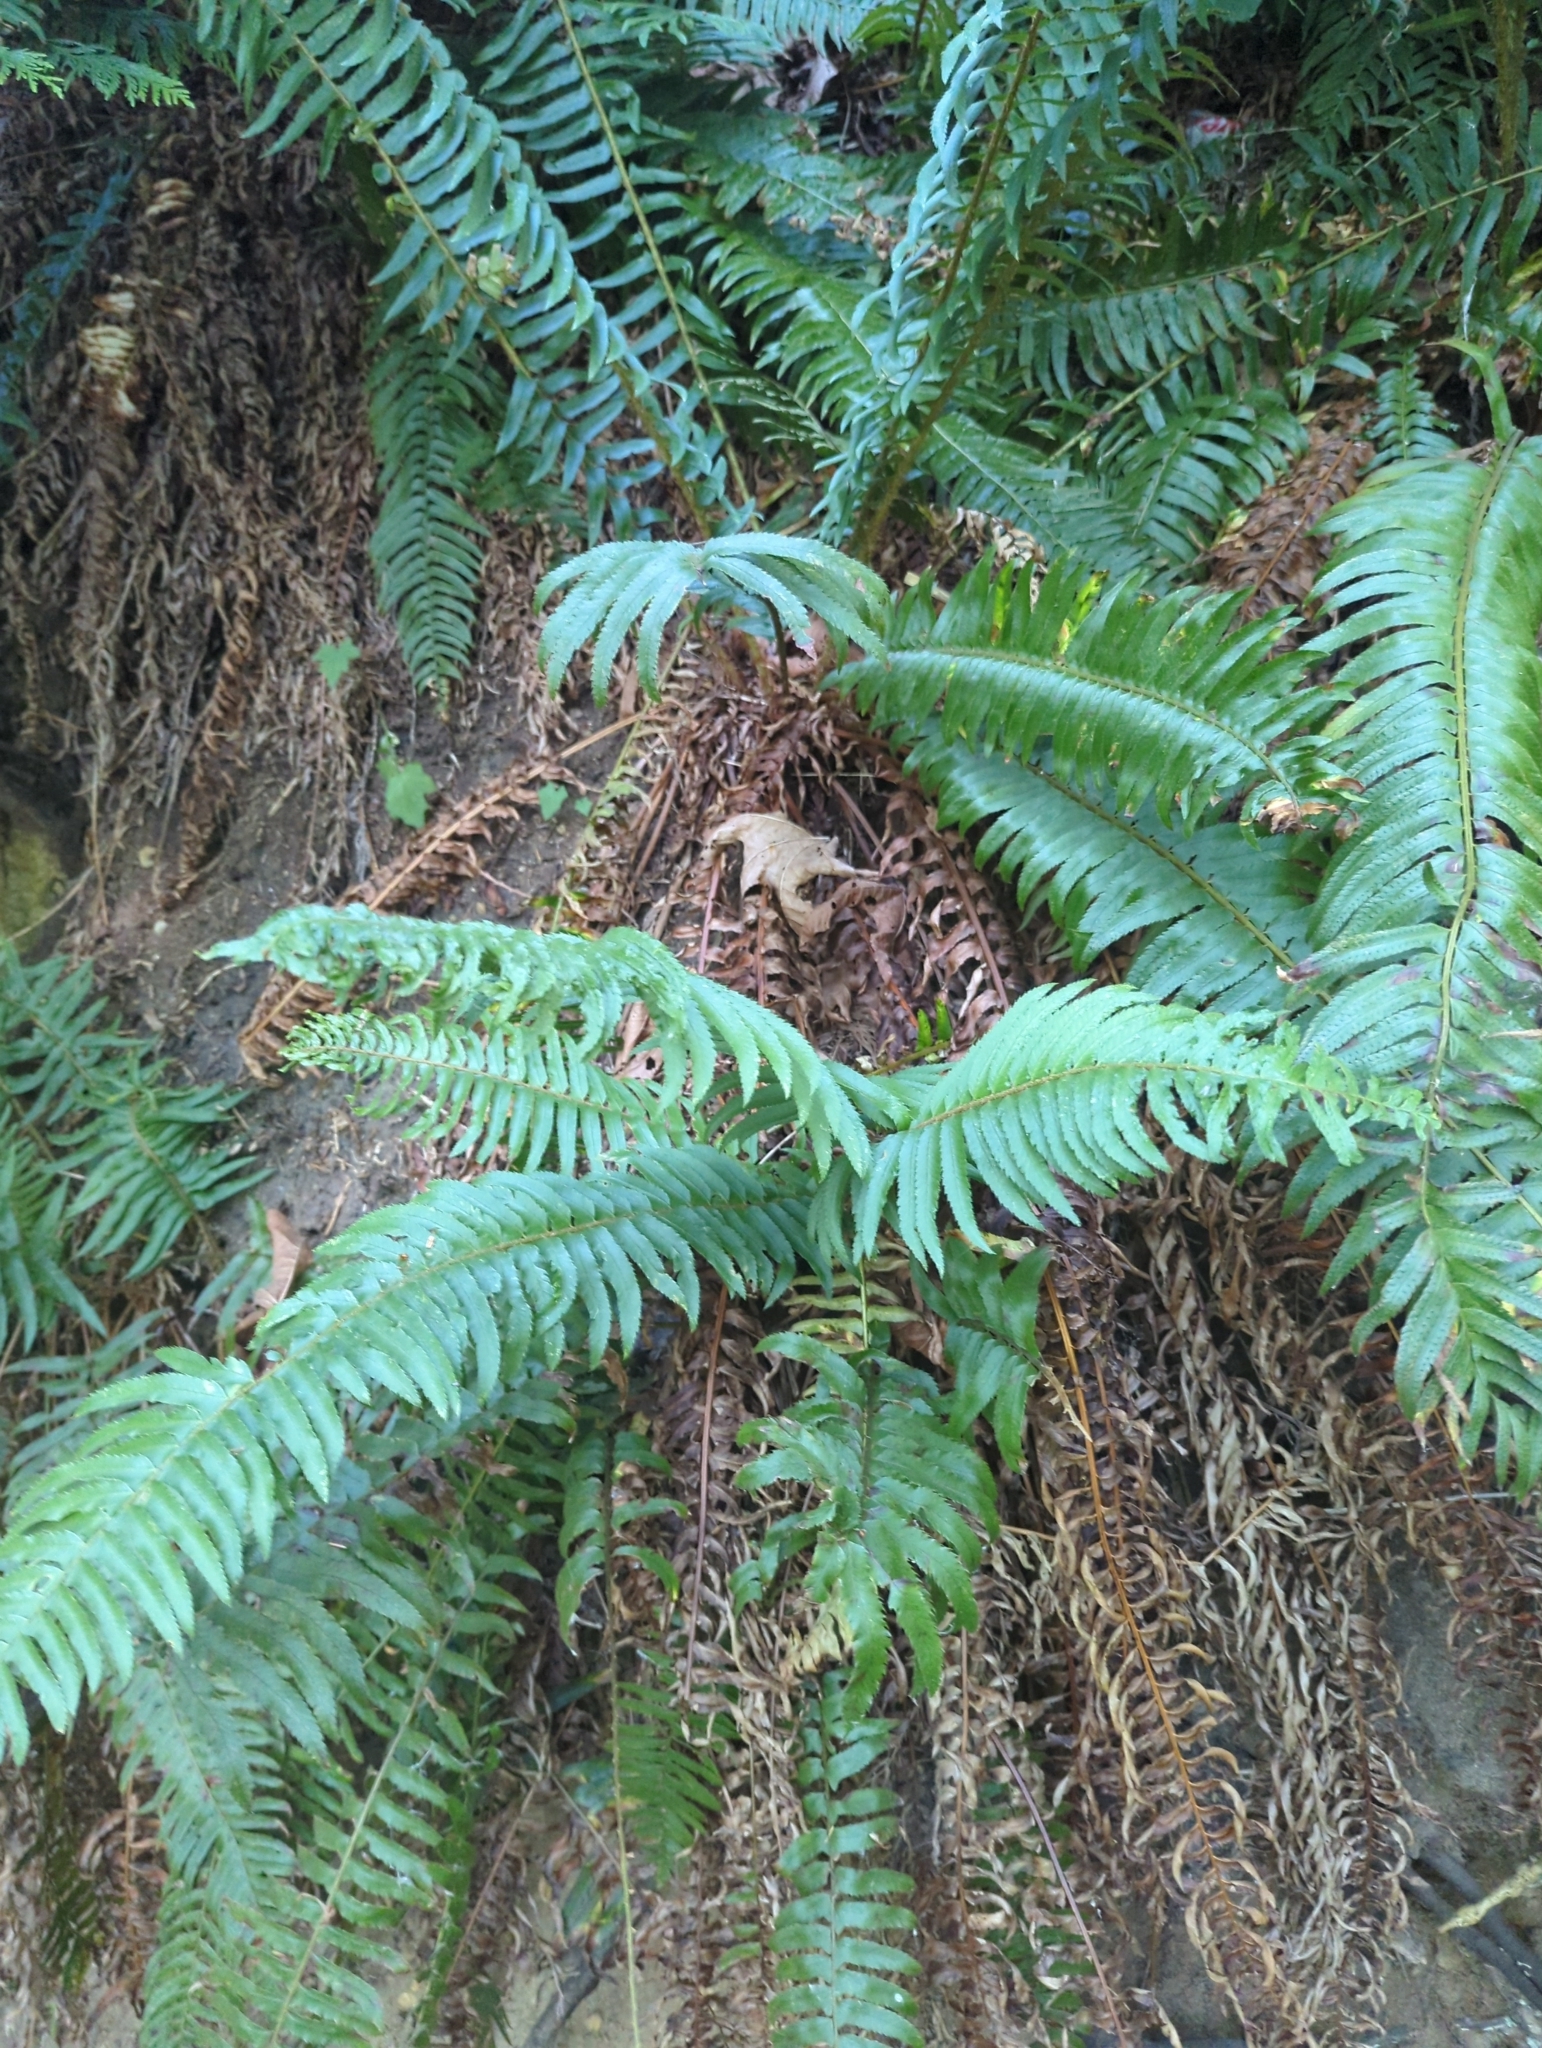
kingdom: Plantae
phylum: Tracheophyta
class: Polypodiopsida
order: Polypodiales
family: Dryopteridaceae
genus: Polystichum
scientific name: Polystichum munitum
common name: Western sword-fern
